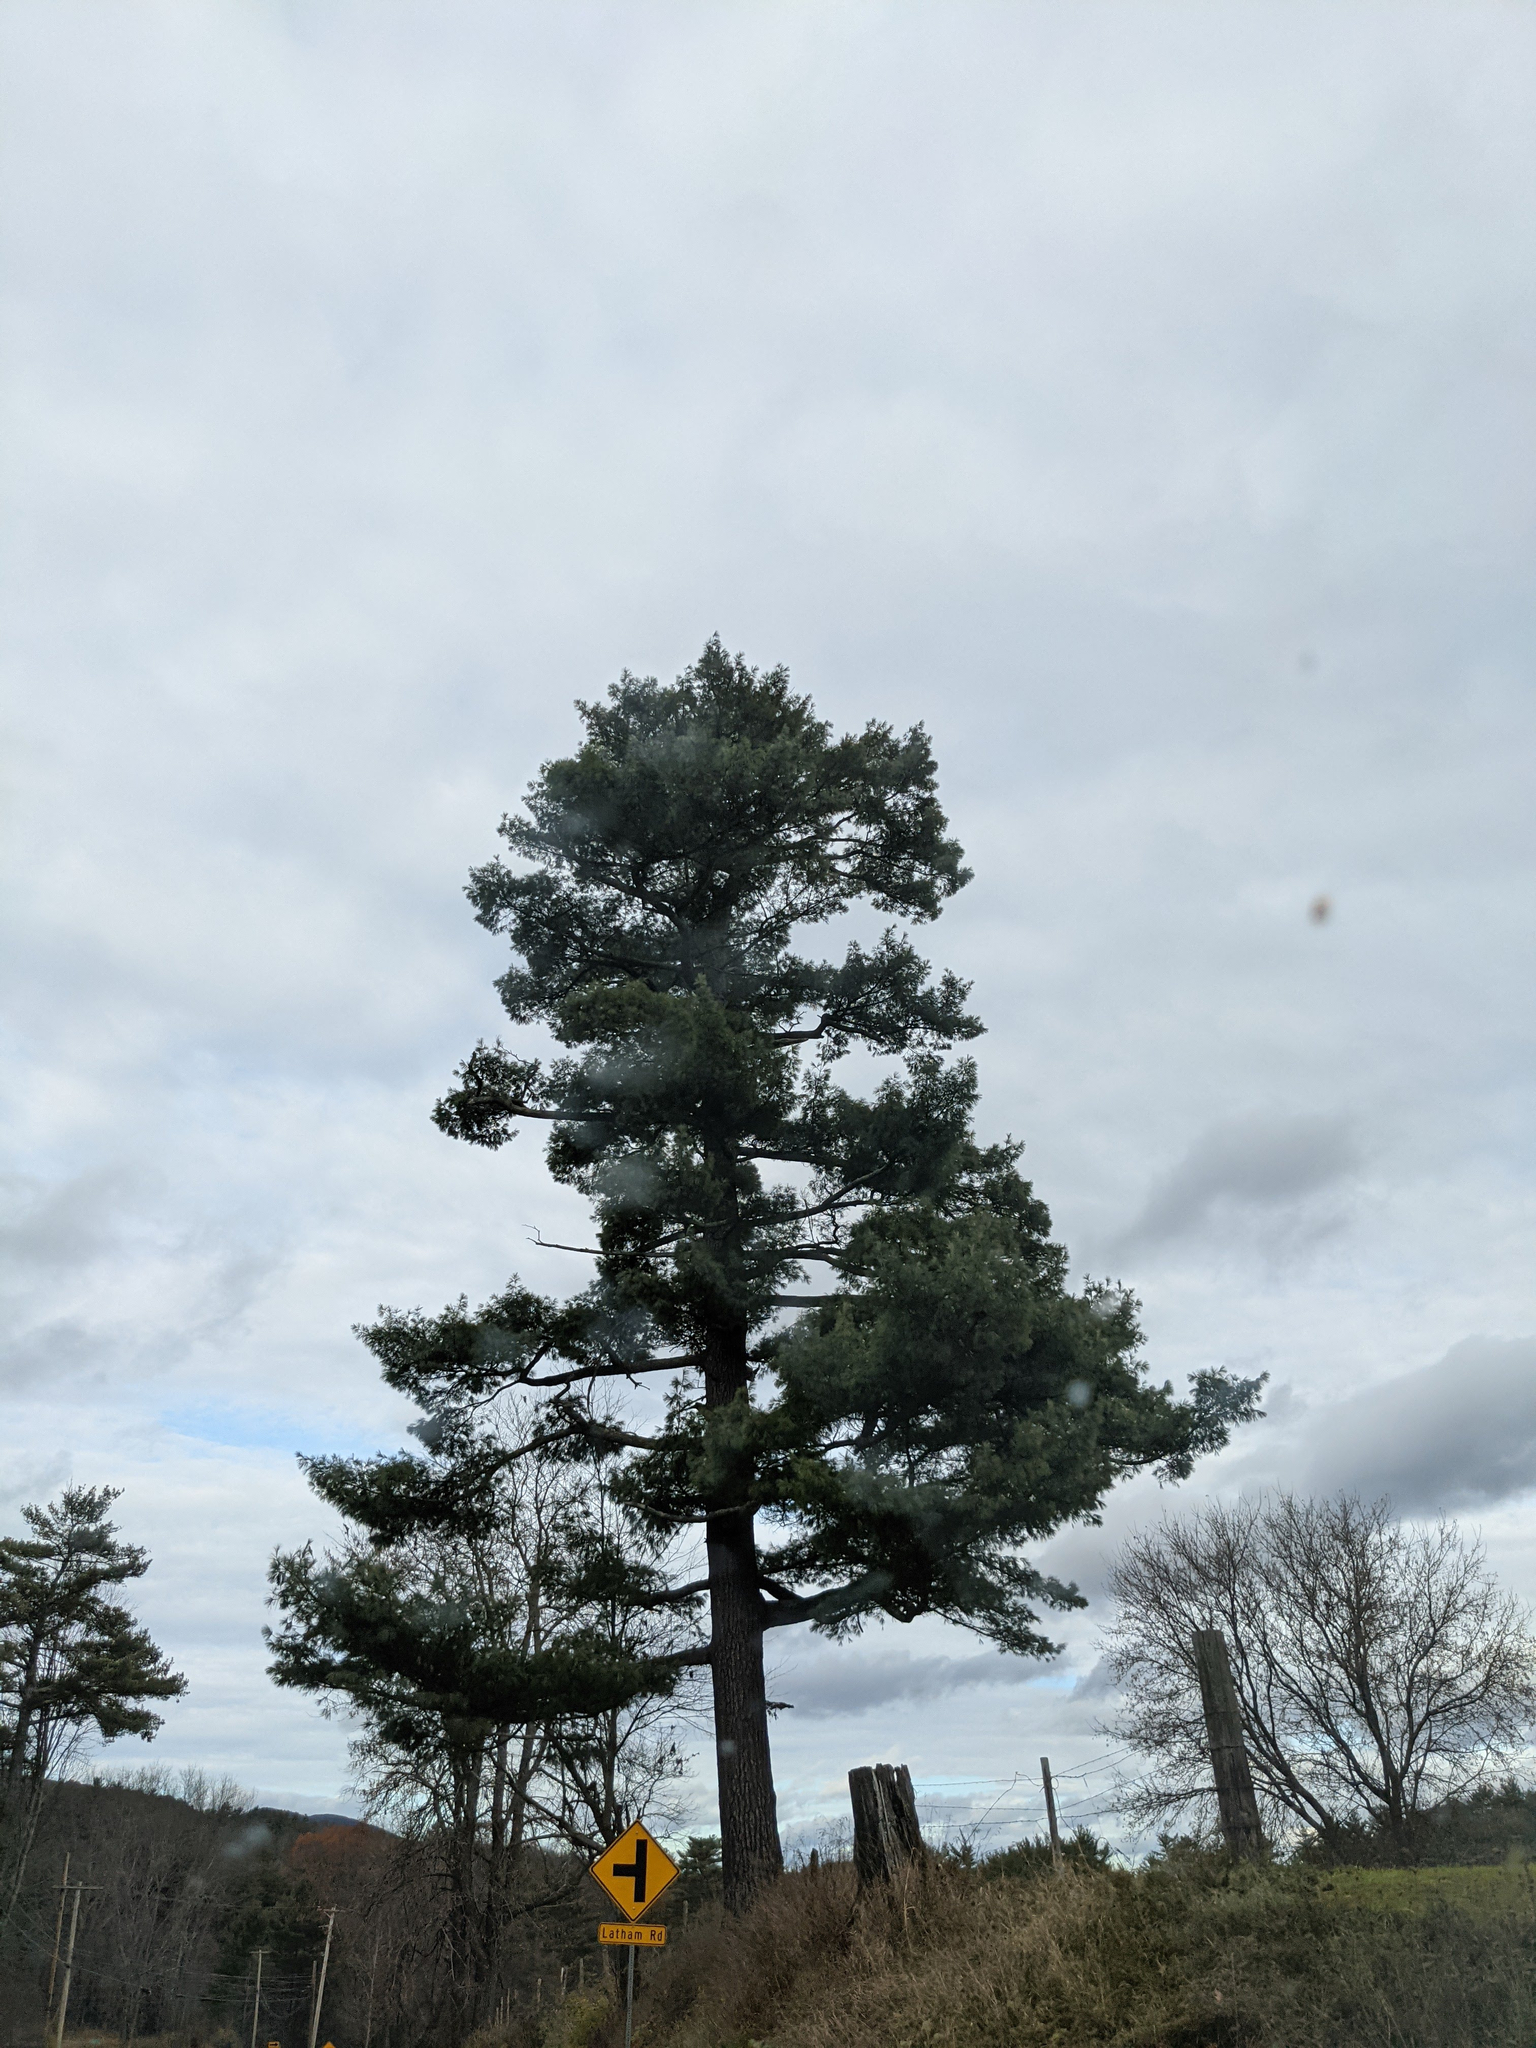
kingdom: Plantae
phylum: Tracheophyta
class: Pinopsida
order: Pinales
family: Pinaceae
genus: Pinus
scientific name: Pinus strobus
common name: Weymouth pine
